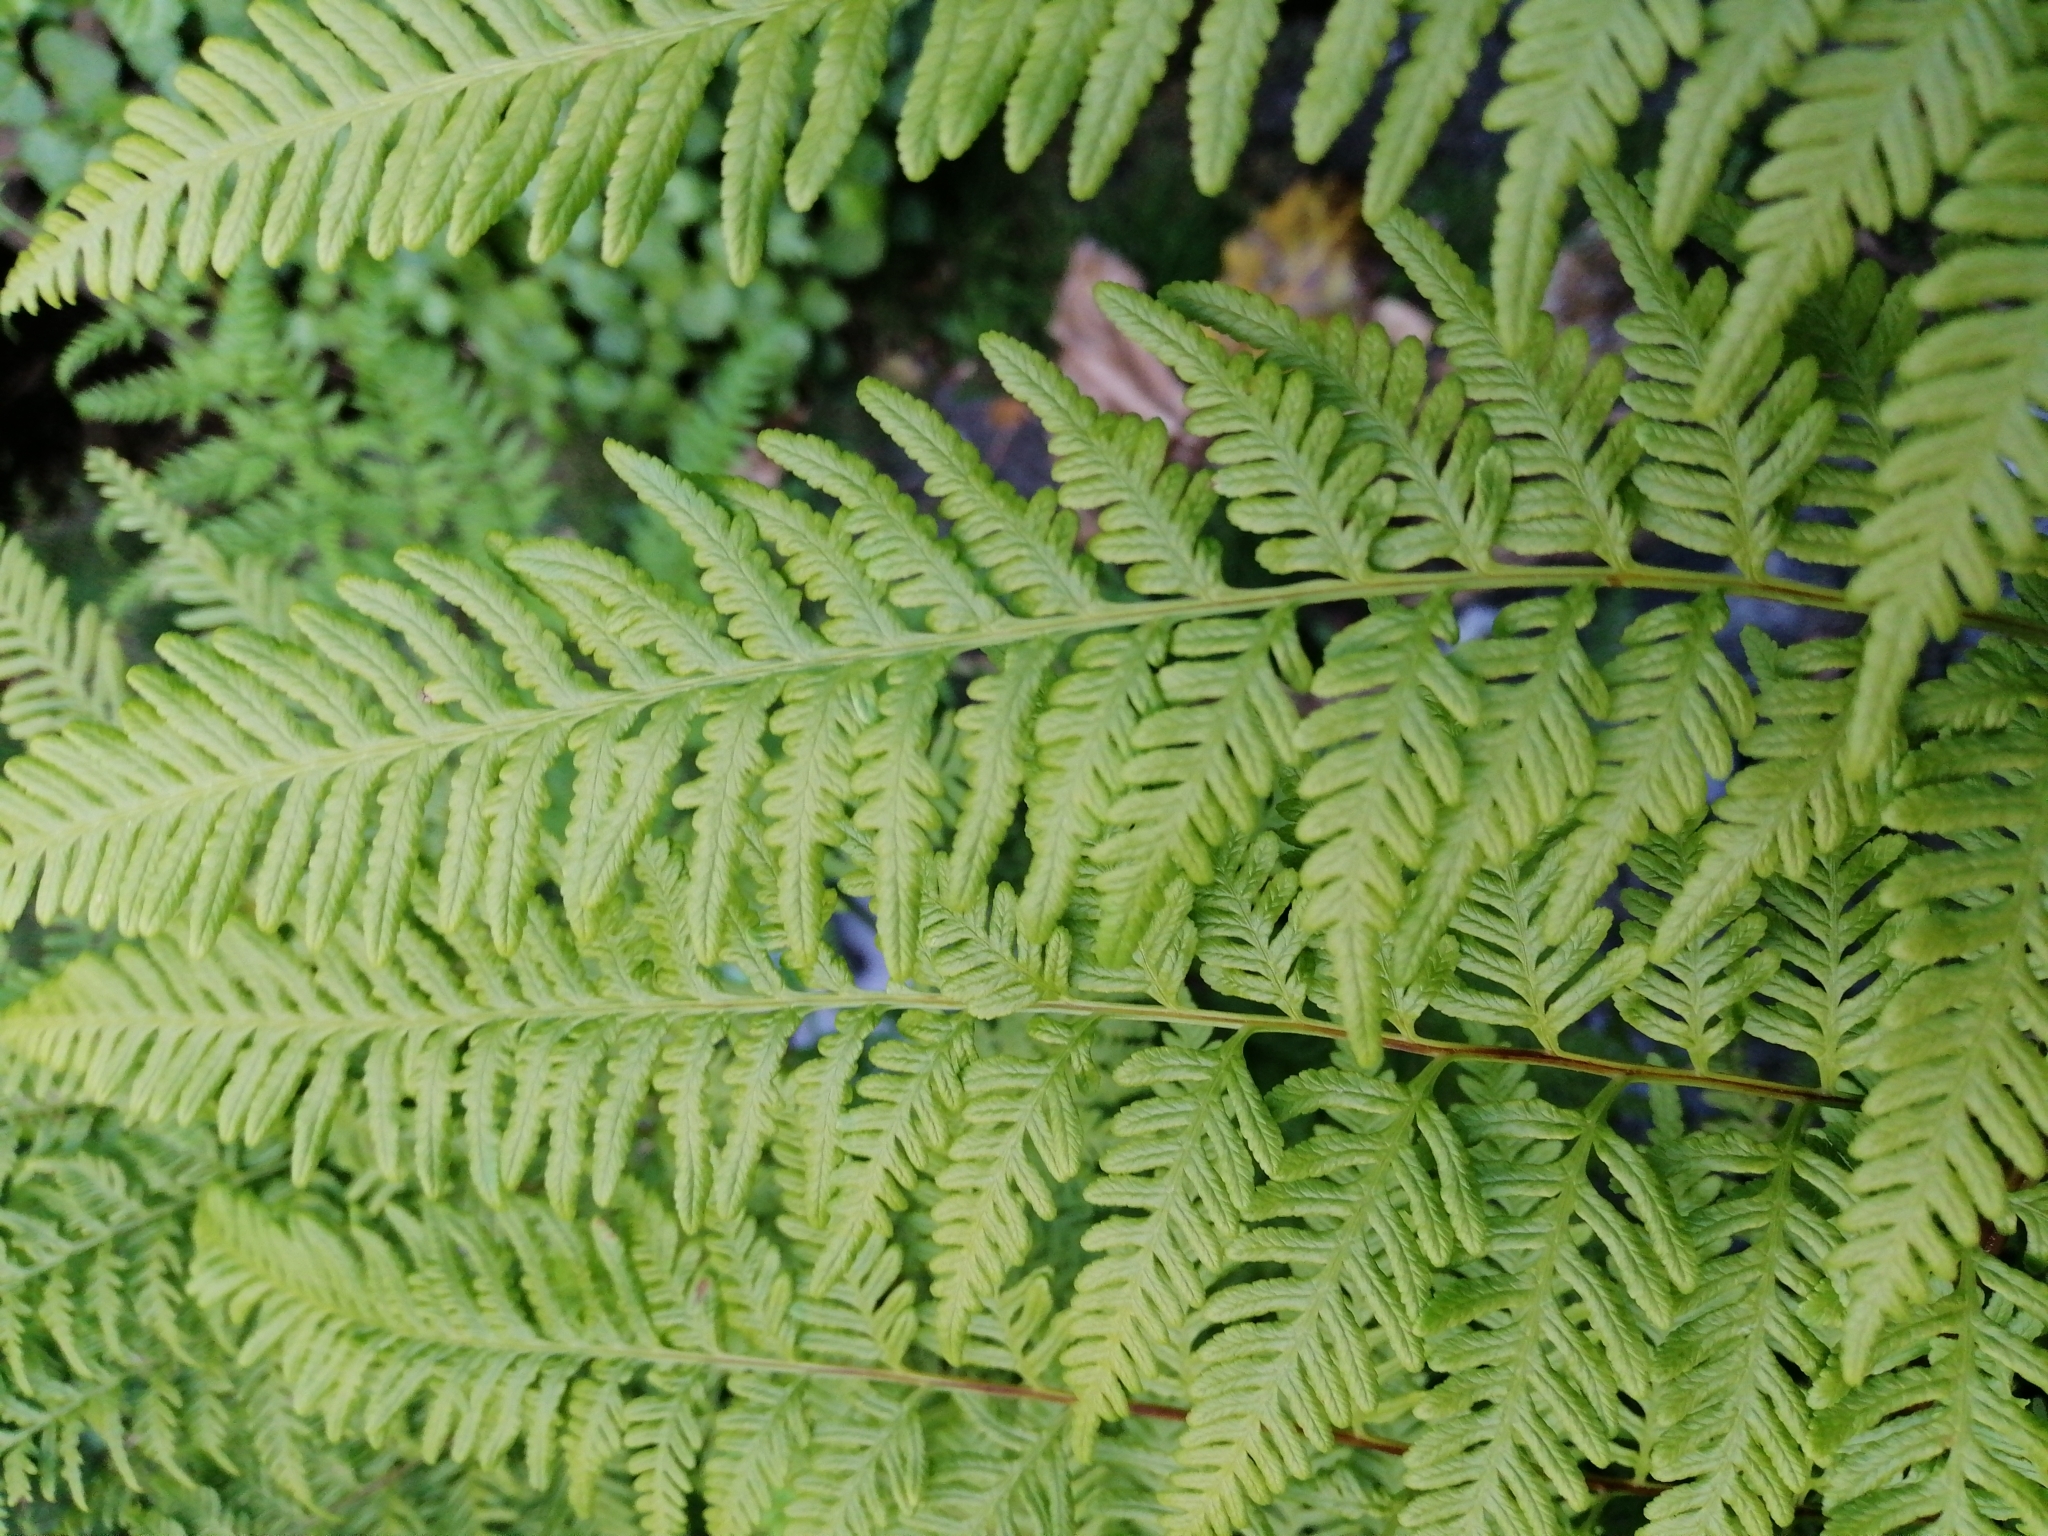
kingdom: Plantae
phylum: Tracheophyta
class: Polypodiopsida
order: Polypodiales
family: Pteridaceae
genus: Pteris
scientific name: Pteris tremula
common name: Australian brake
